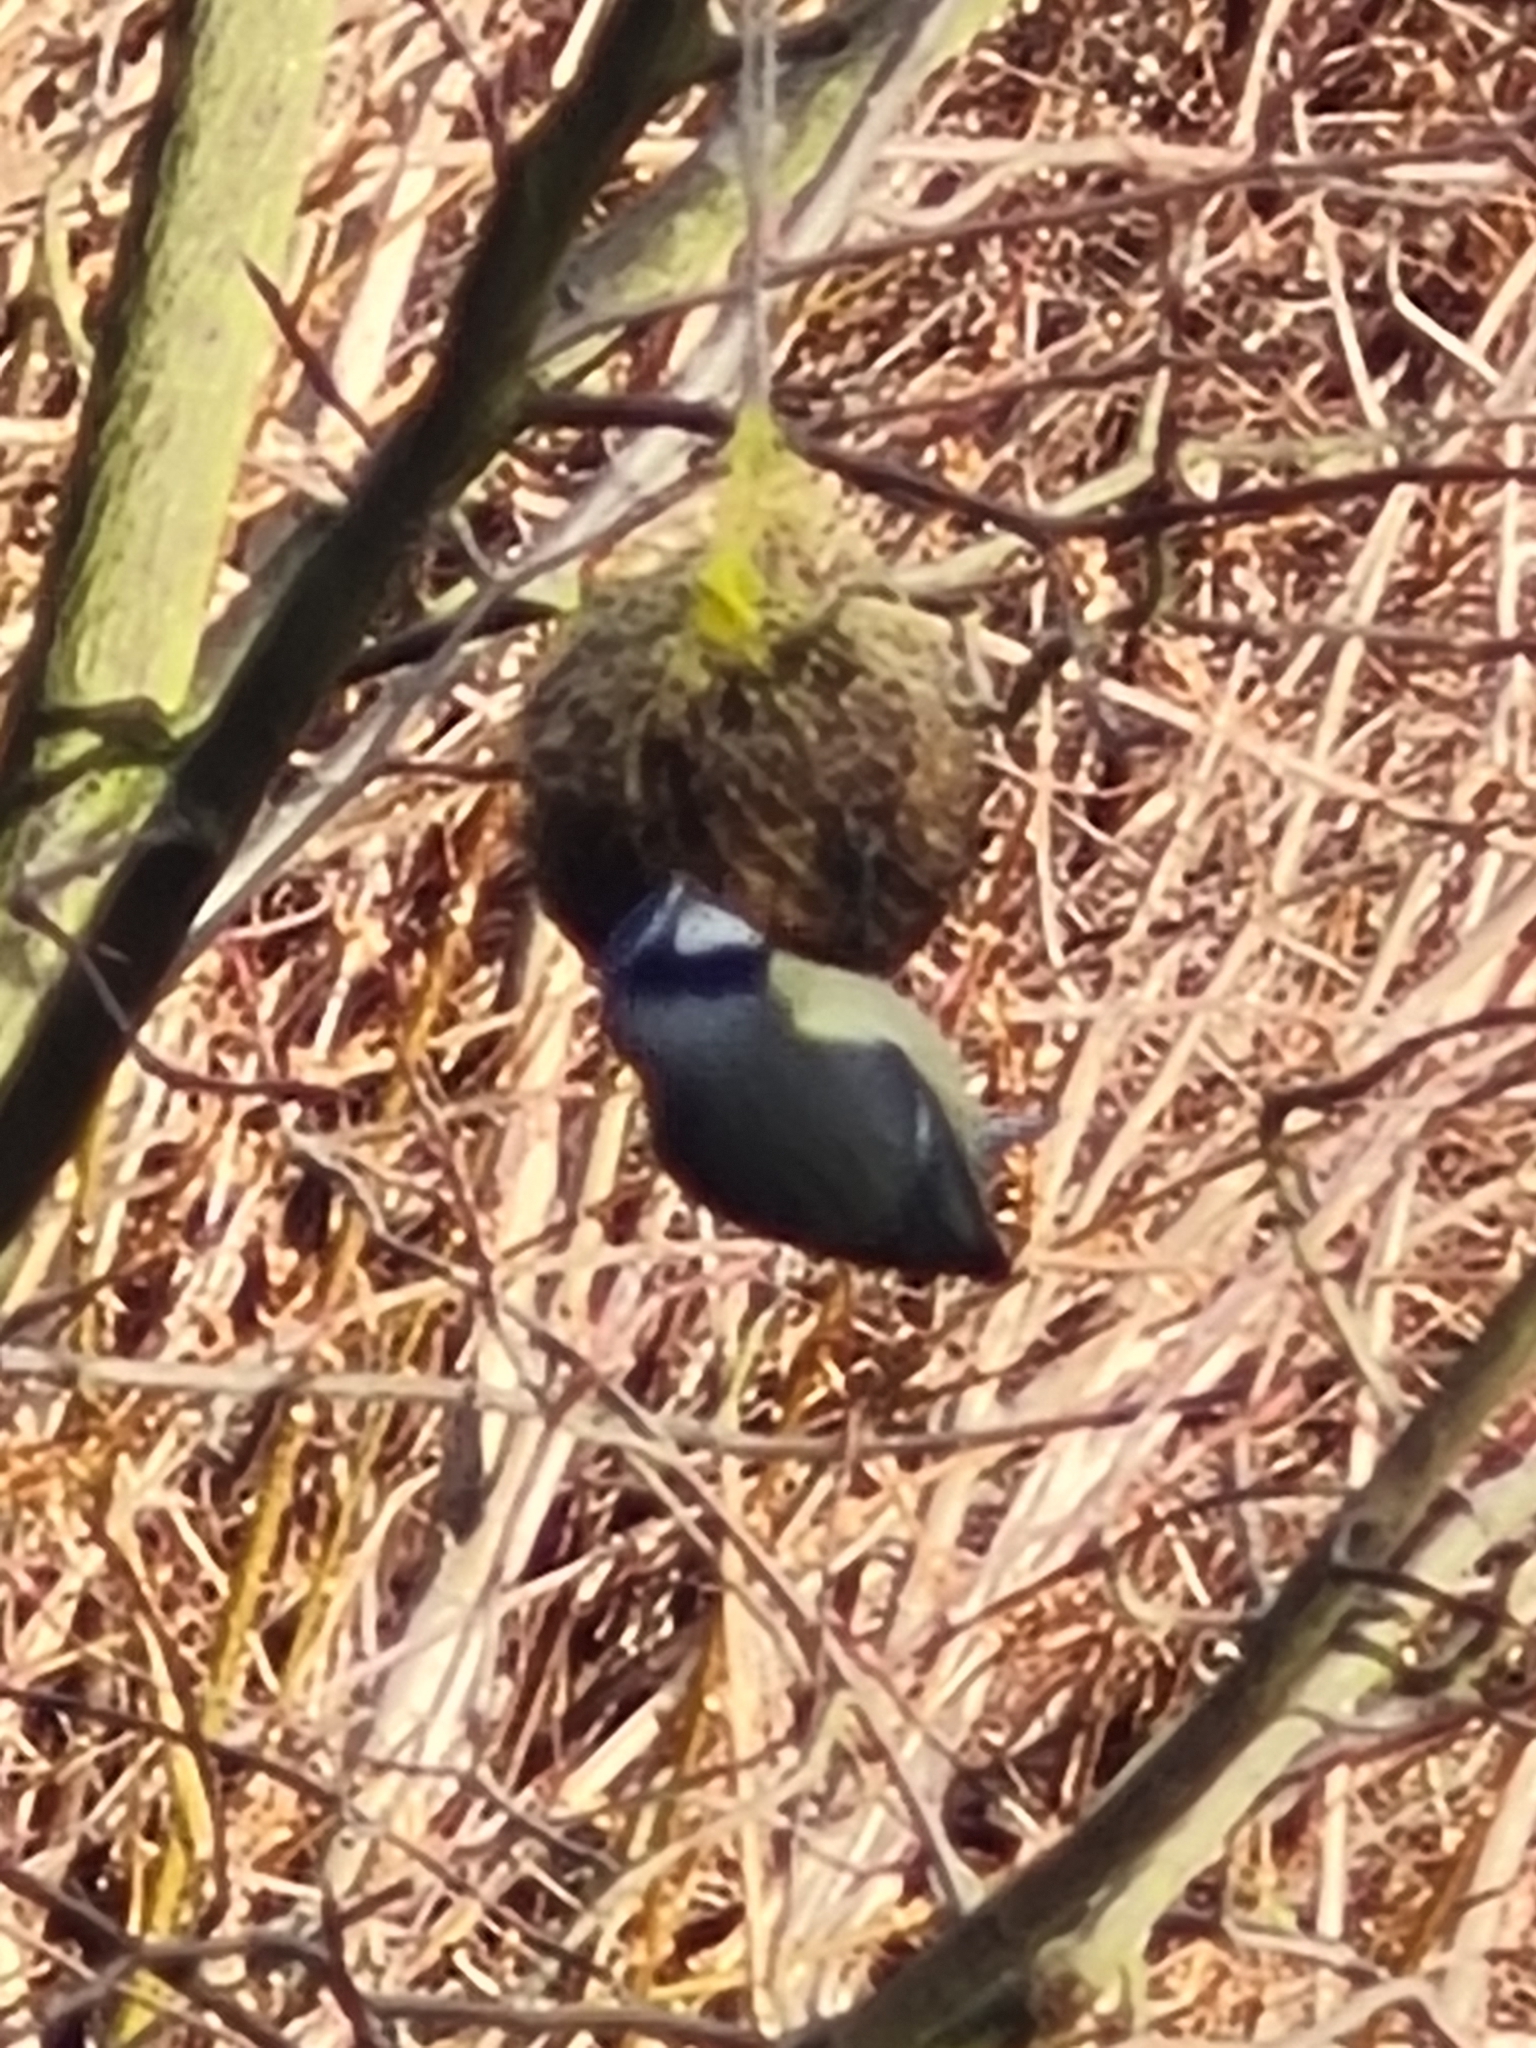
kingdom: Animalia
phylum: Chordata
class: Aves
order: Passeriformes
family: Paridae
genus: Cyanistes
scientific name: Cyanistes caeruleus
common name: Eurasian blue tit
